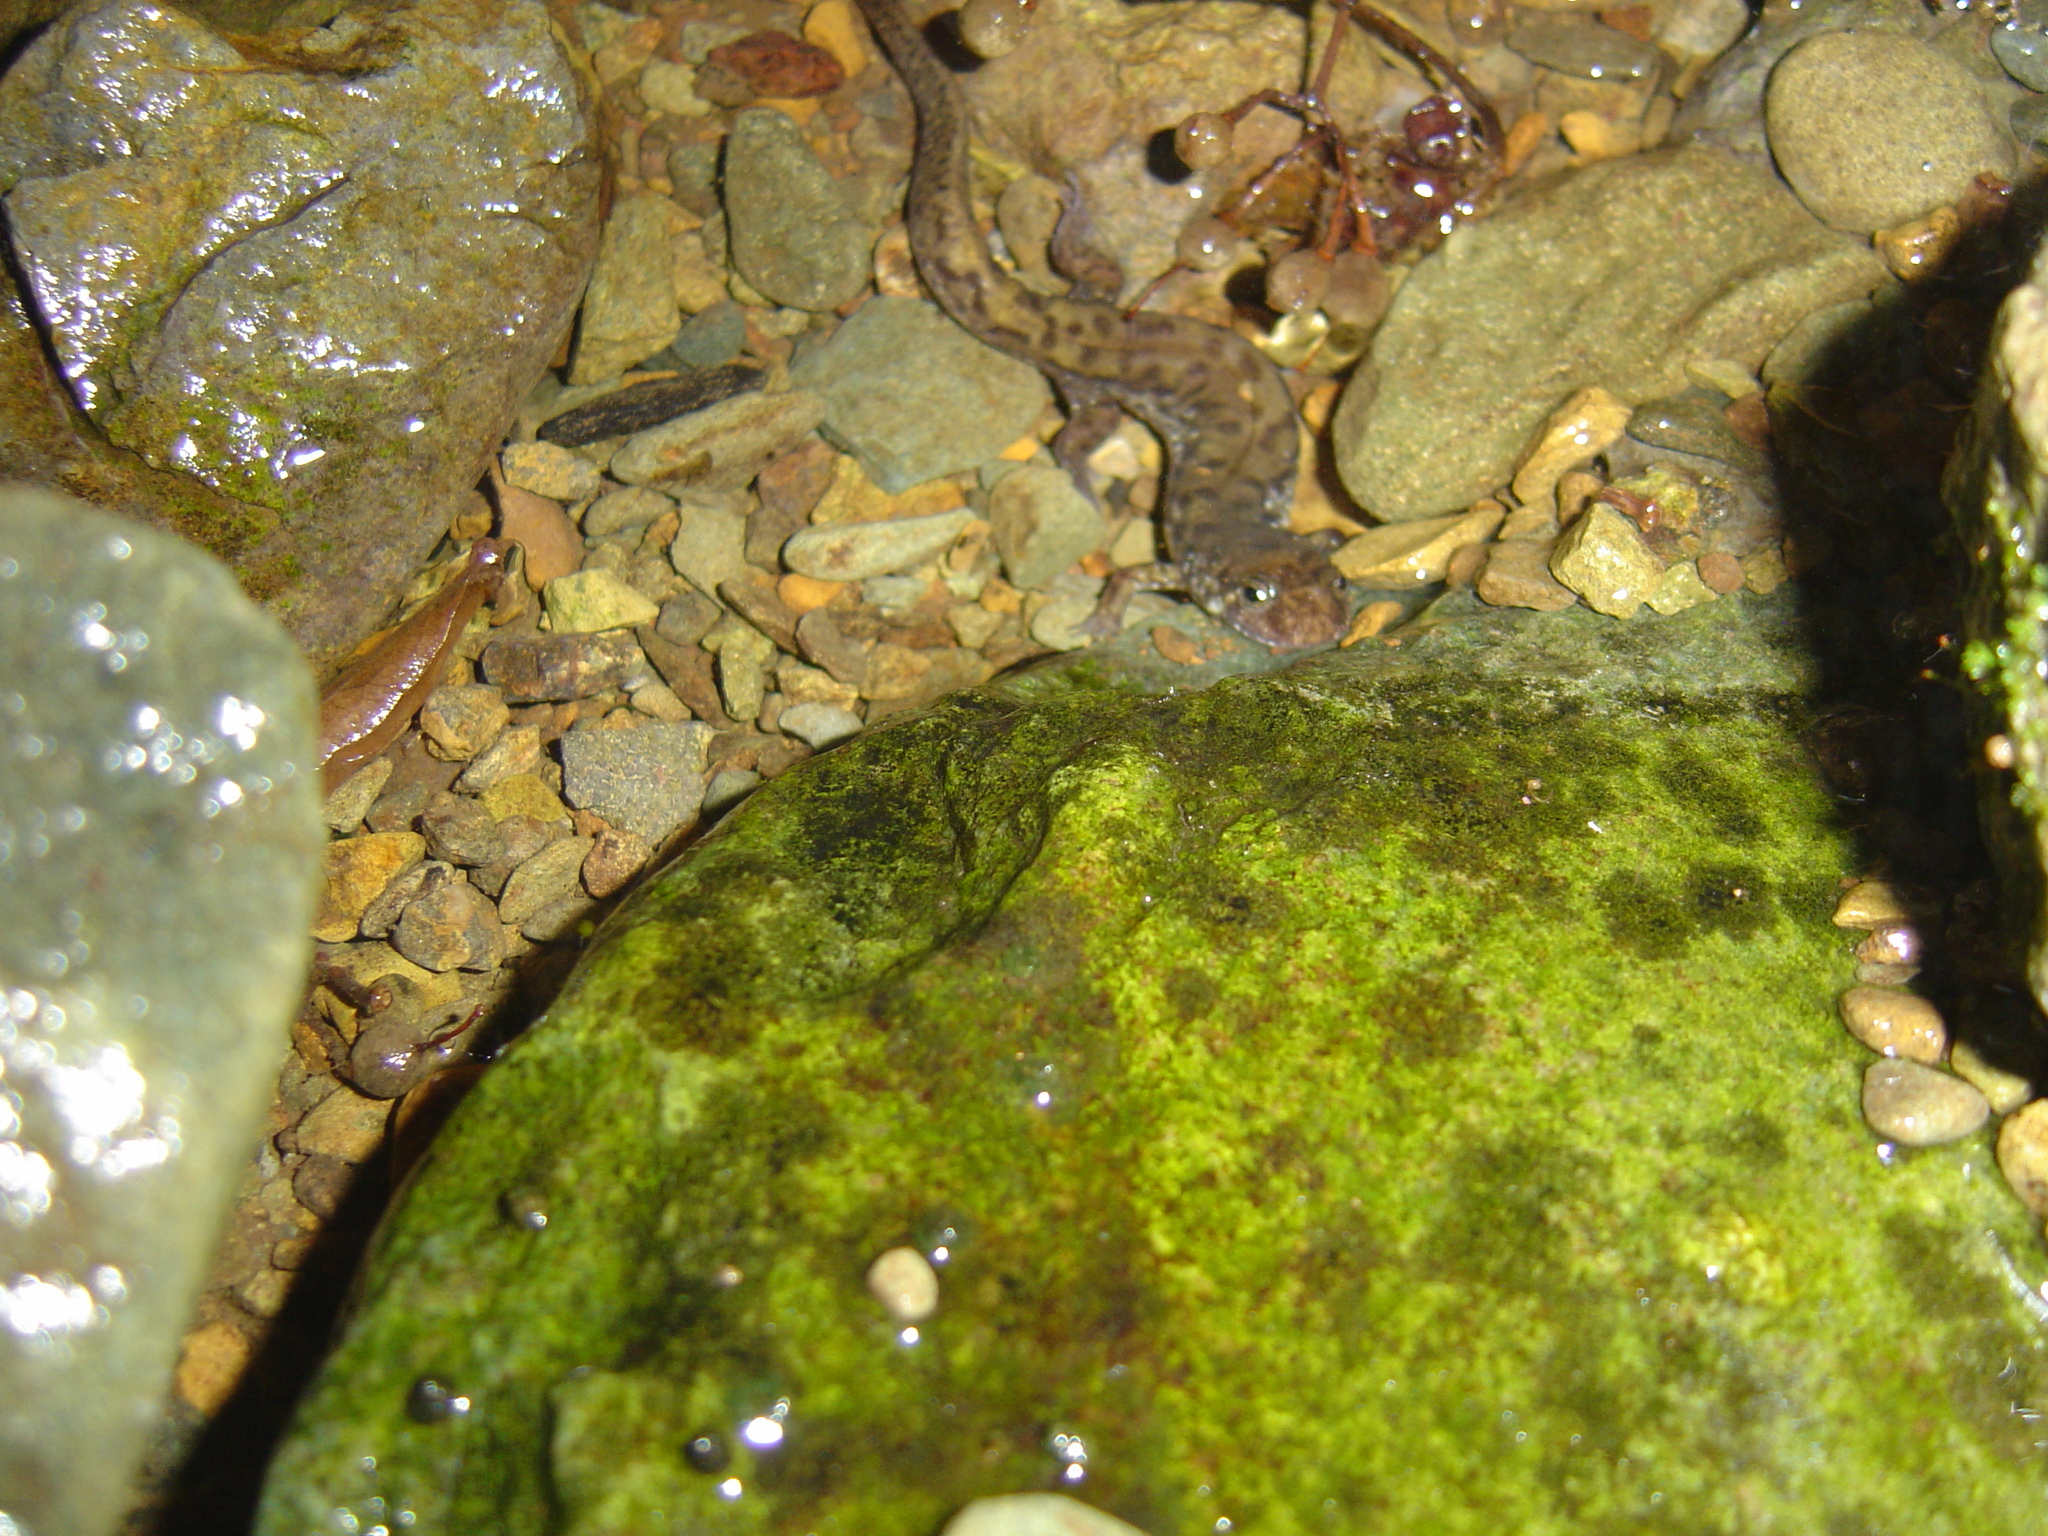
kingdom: Animalia
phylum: Chordata
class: Amphibia
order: Caudata
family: Plethodontidae
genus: Desmognathus
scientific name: Desmognathus monticola
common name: Seal salamander
